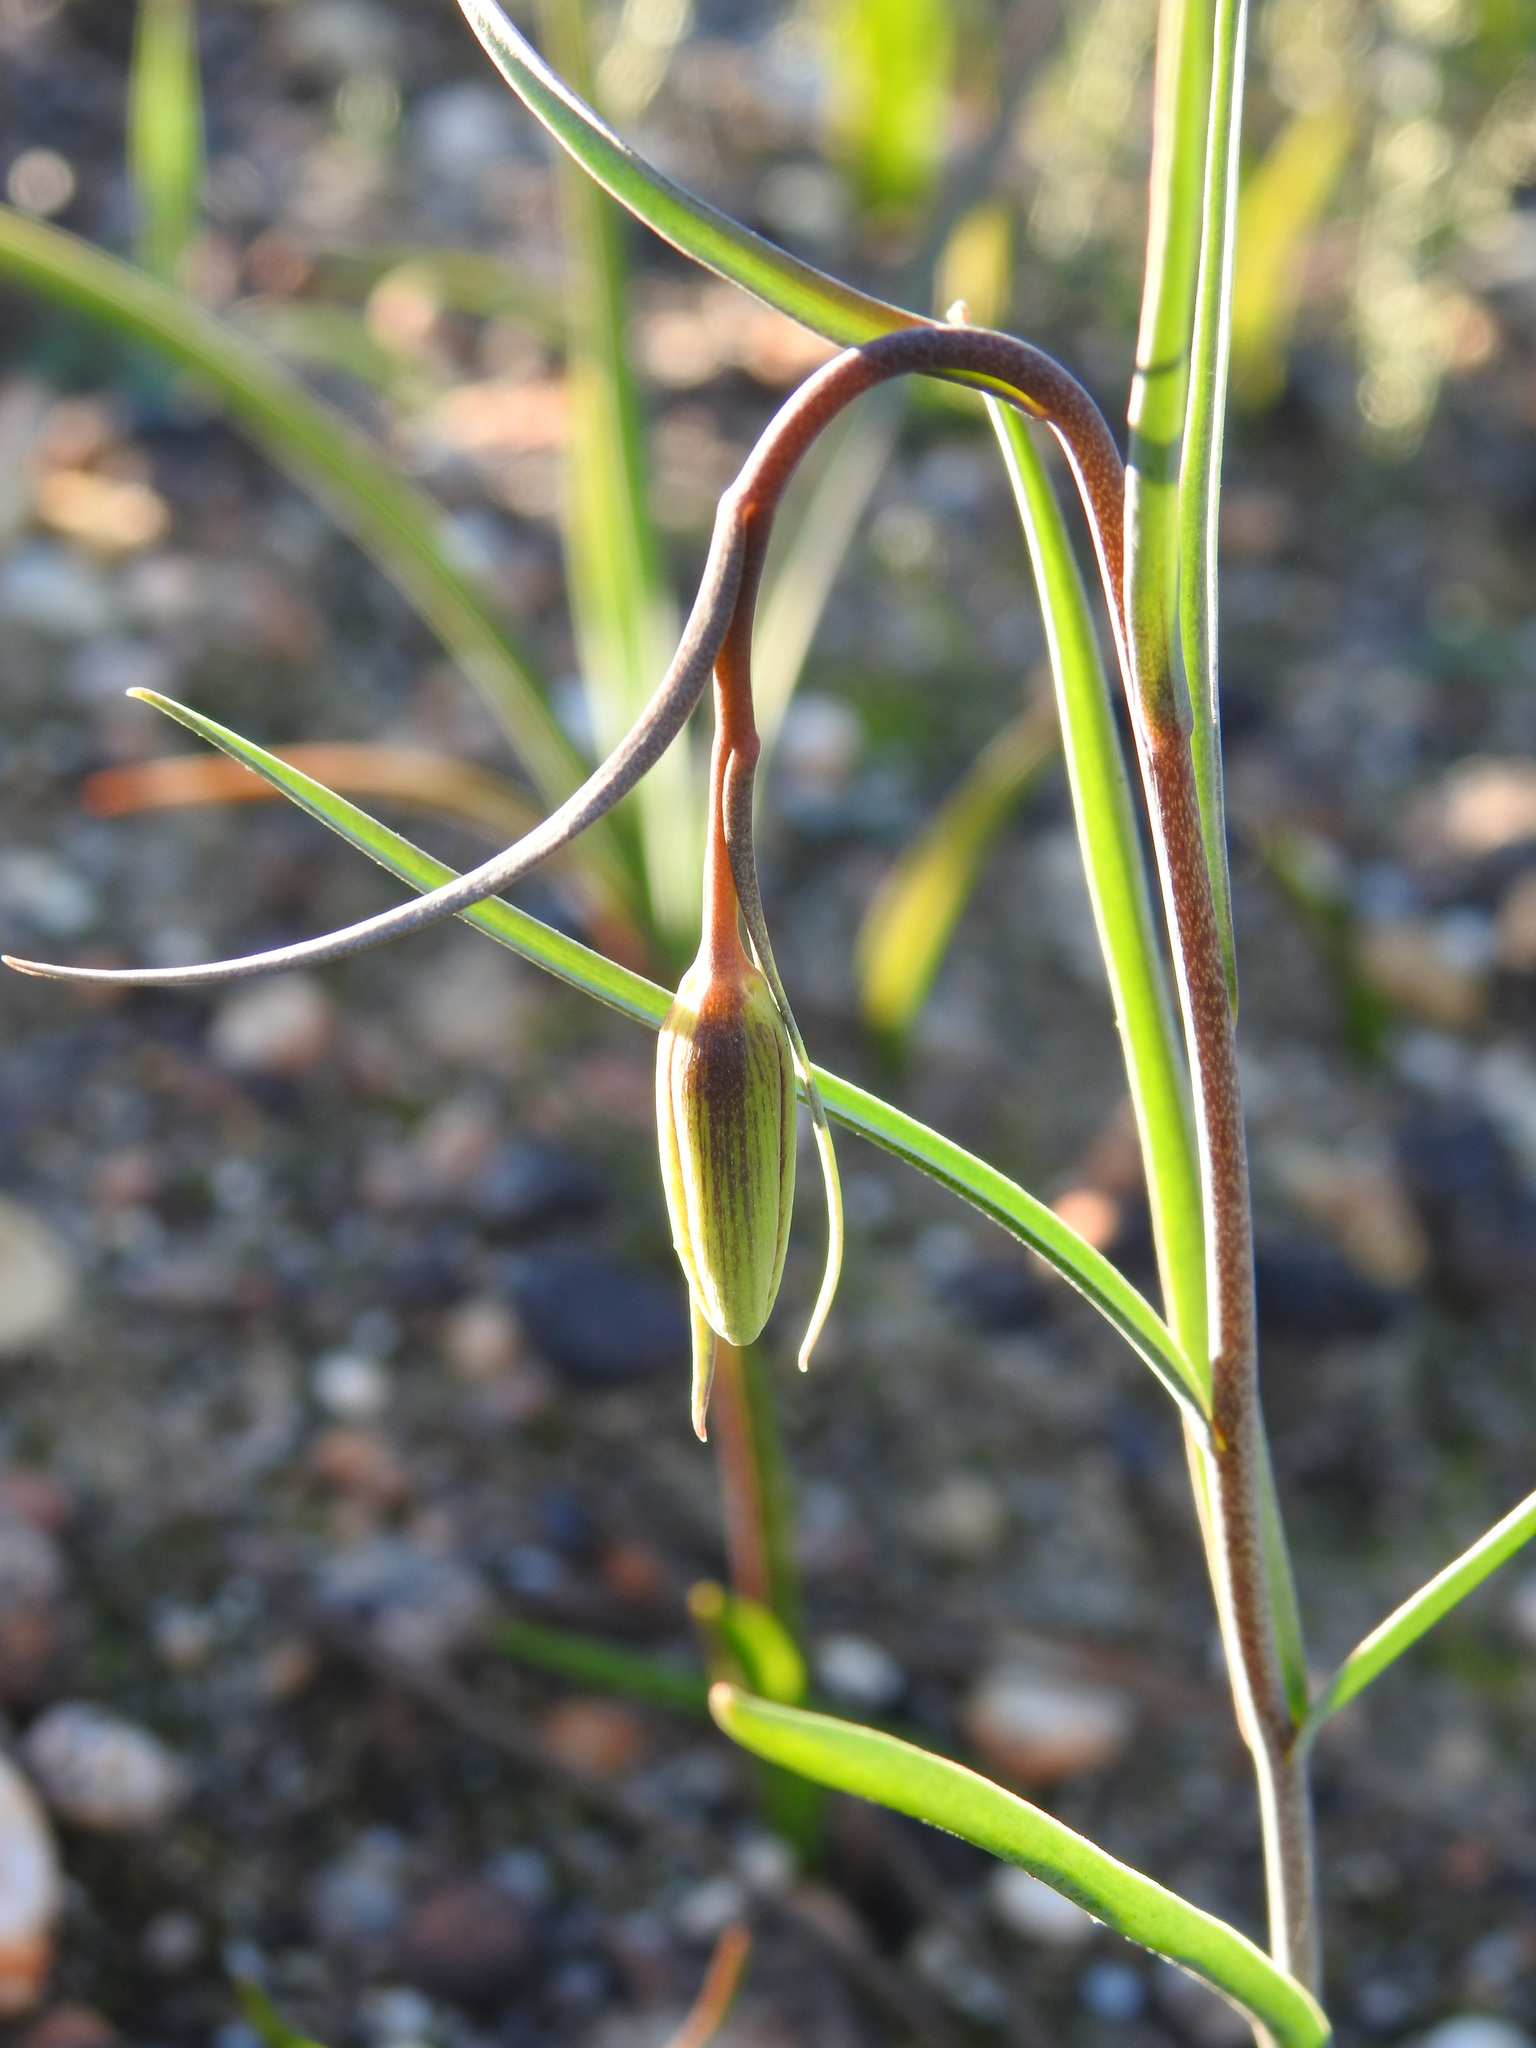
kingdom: Plantae
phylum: Tracheophyta
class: Liliopsida
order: Liliales
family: Liliaceae
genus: Fritillaria
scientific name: Fritillaria lusitanica
